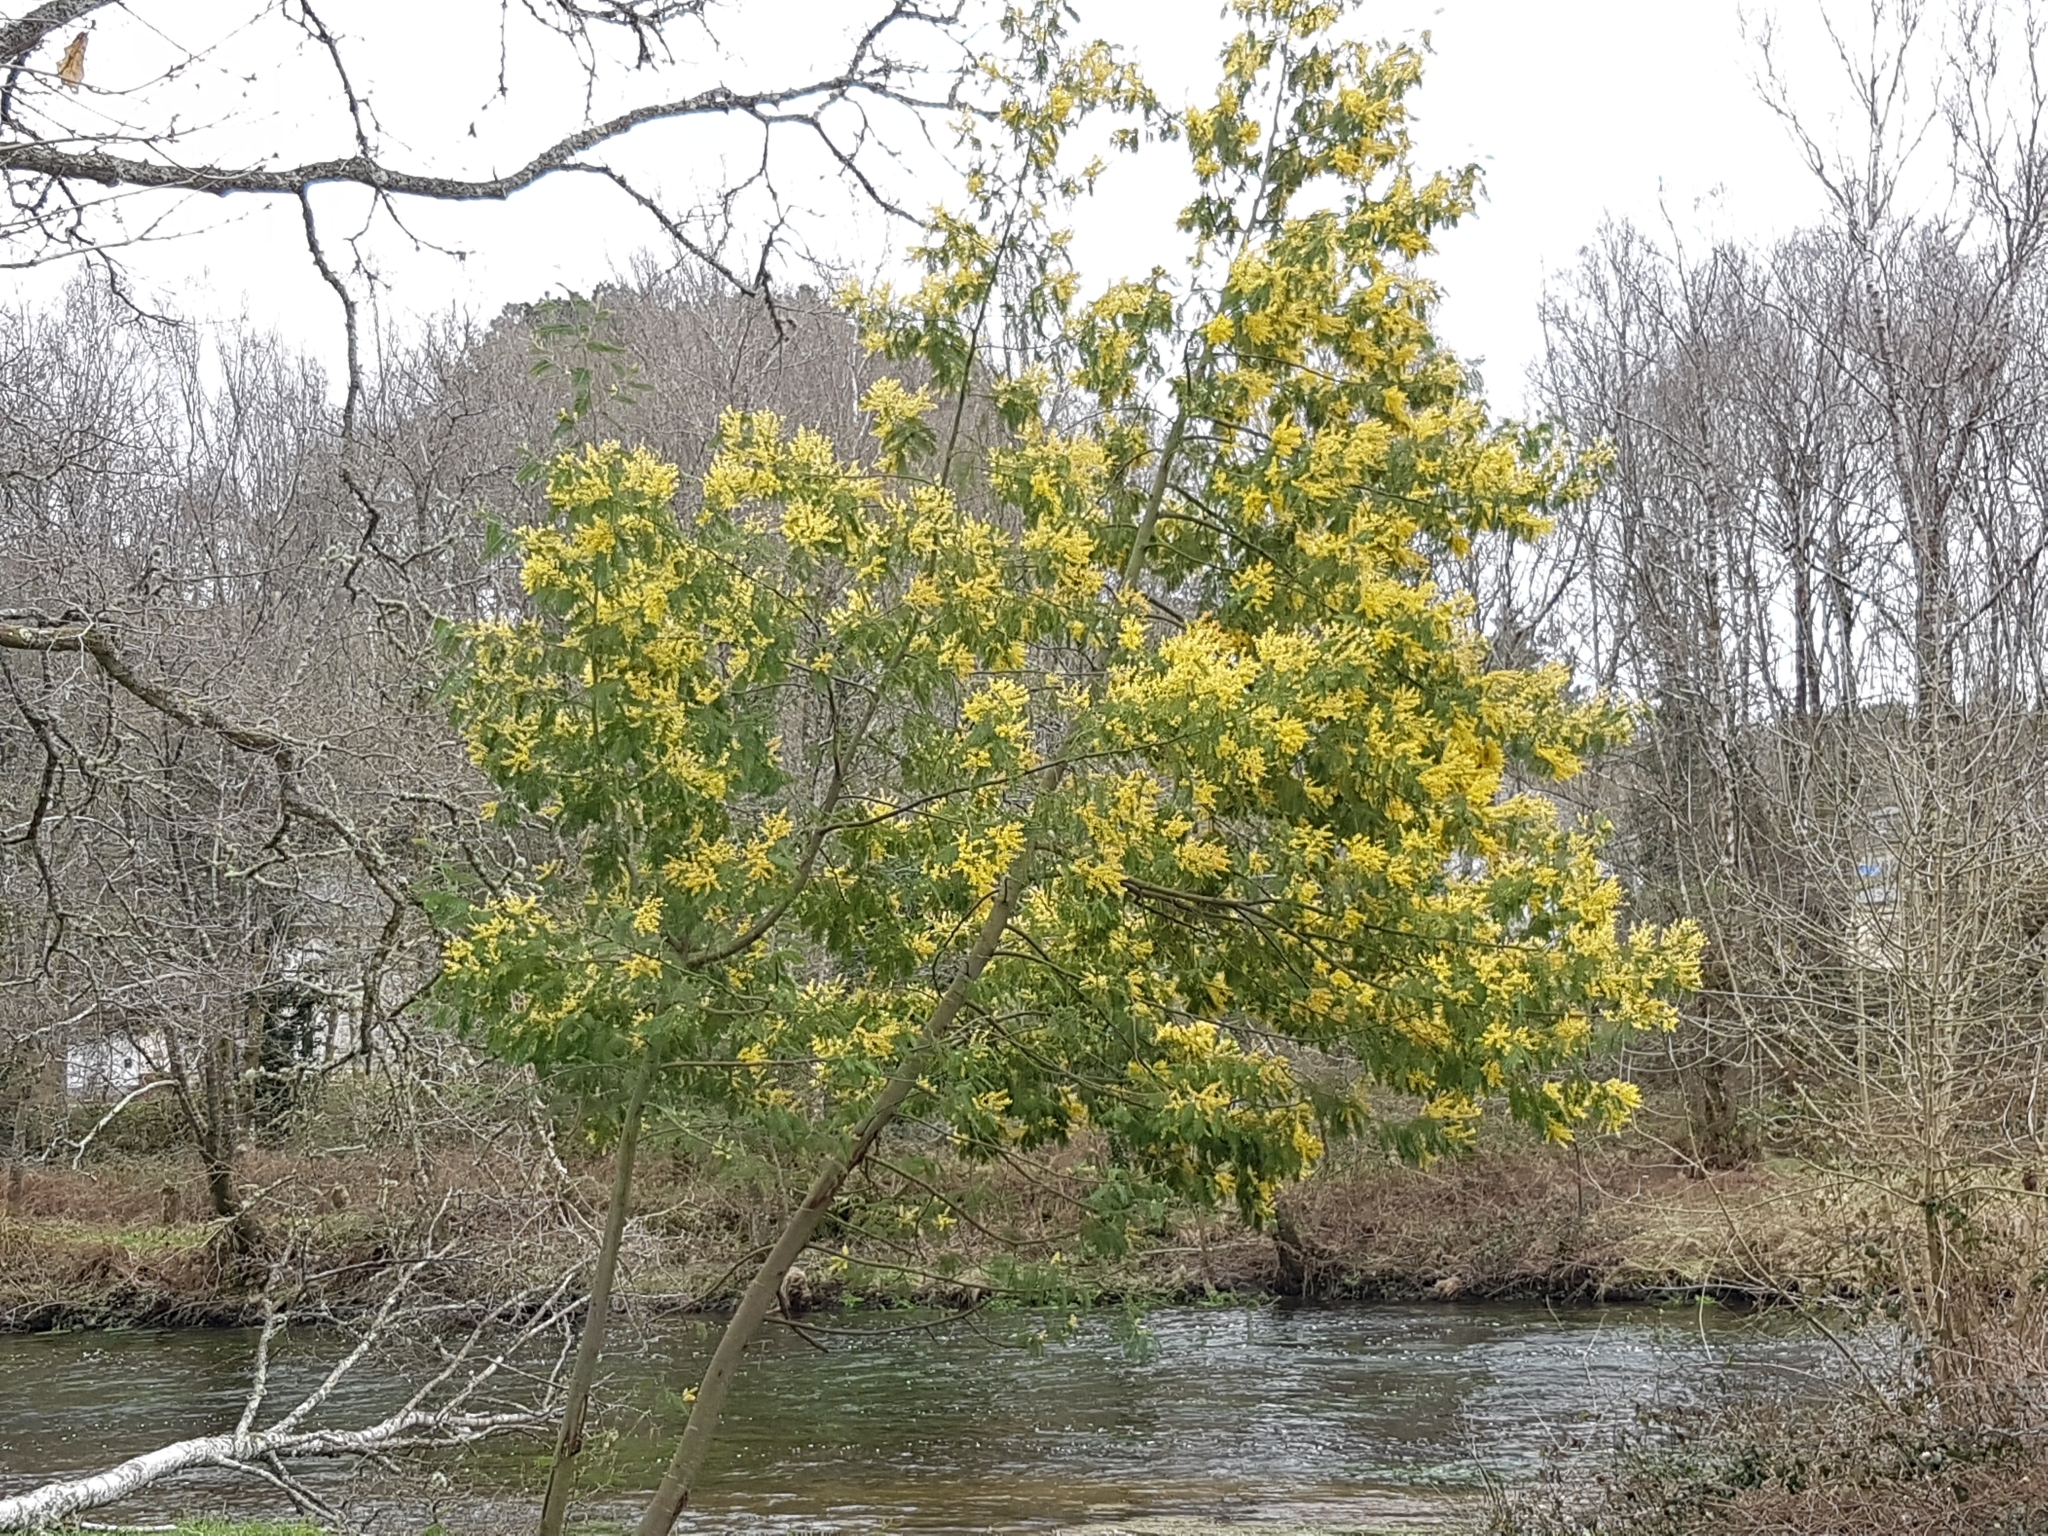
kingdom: Plantae
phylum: Tracheophyta
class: Magnoliopsida
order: Fabales
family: Fabaceae
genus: Acacia
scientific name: Acacia dealbata
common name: Silver wattle
